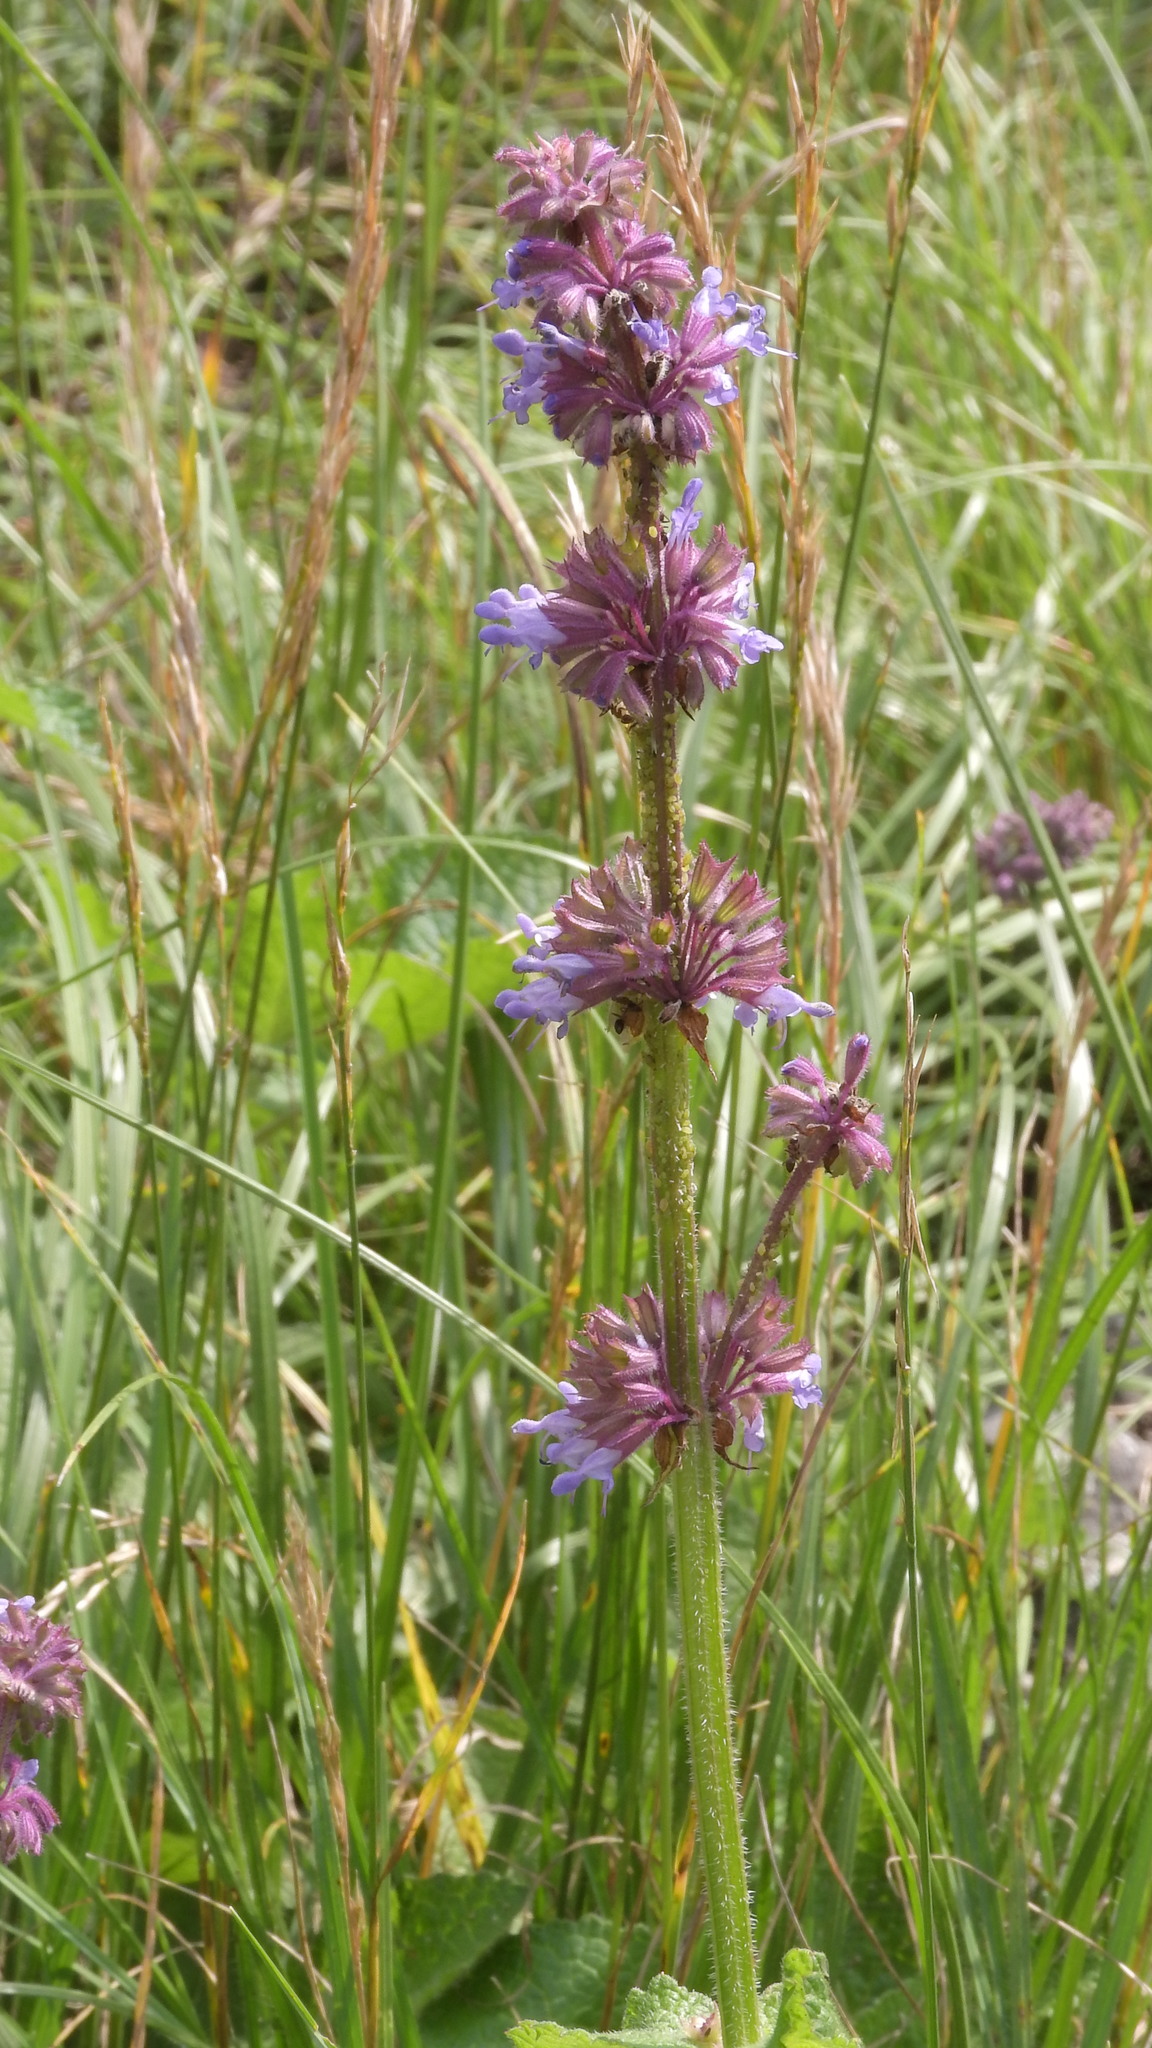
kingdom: Plantae
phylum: Tracheophyta
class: Magnoliopsida
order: Lamiales
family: Lamiaceae
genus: Salvia
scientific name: Salvia verticillata
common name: Whorled clary
